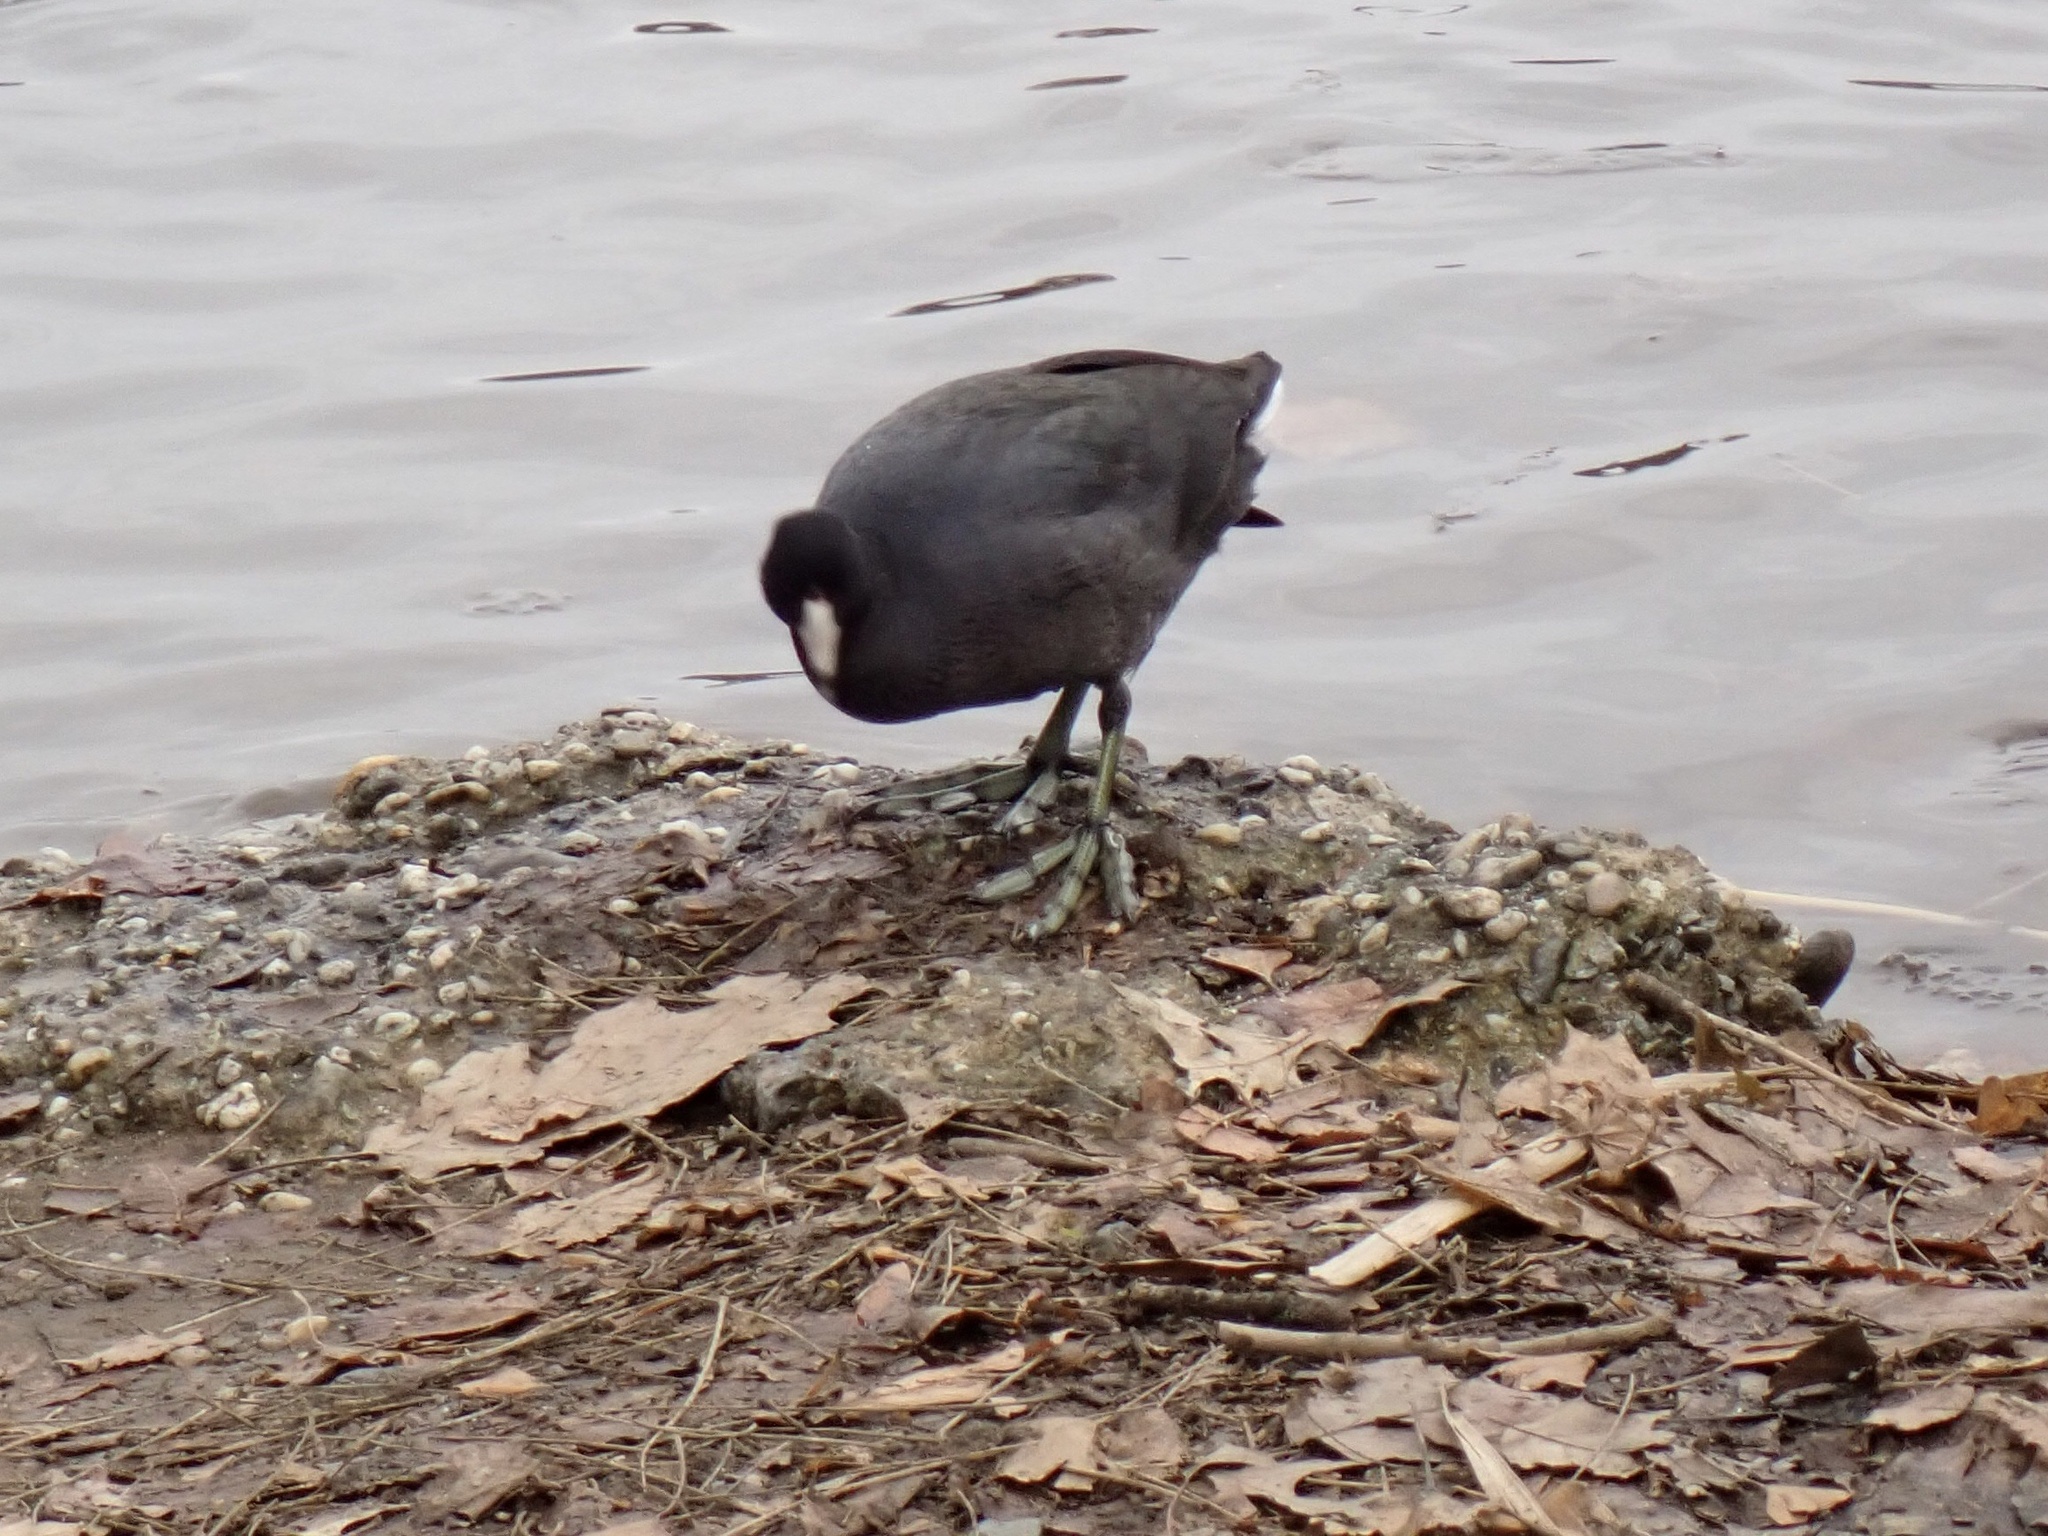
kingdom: Animalia
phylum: Chordata
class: Aves
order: Gruiformes
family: Rallidae
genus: Fulica
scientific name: Fulica americana
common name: American coot
